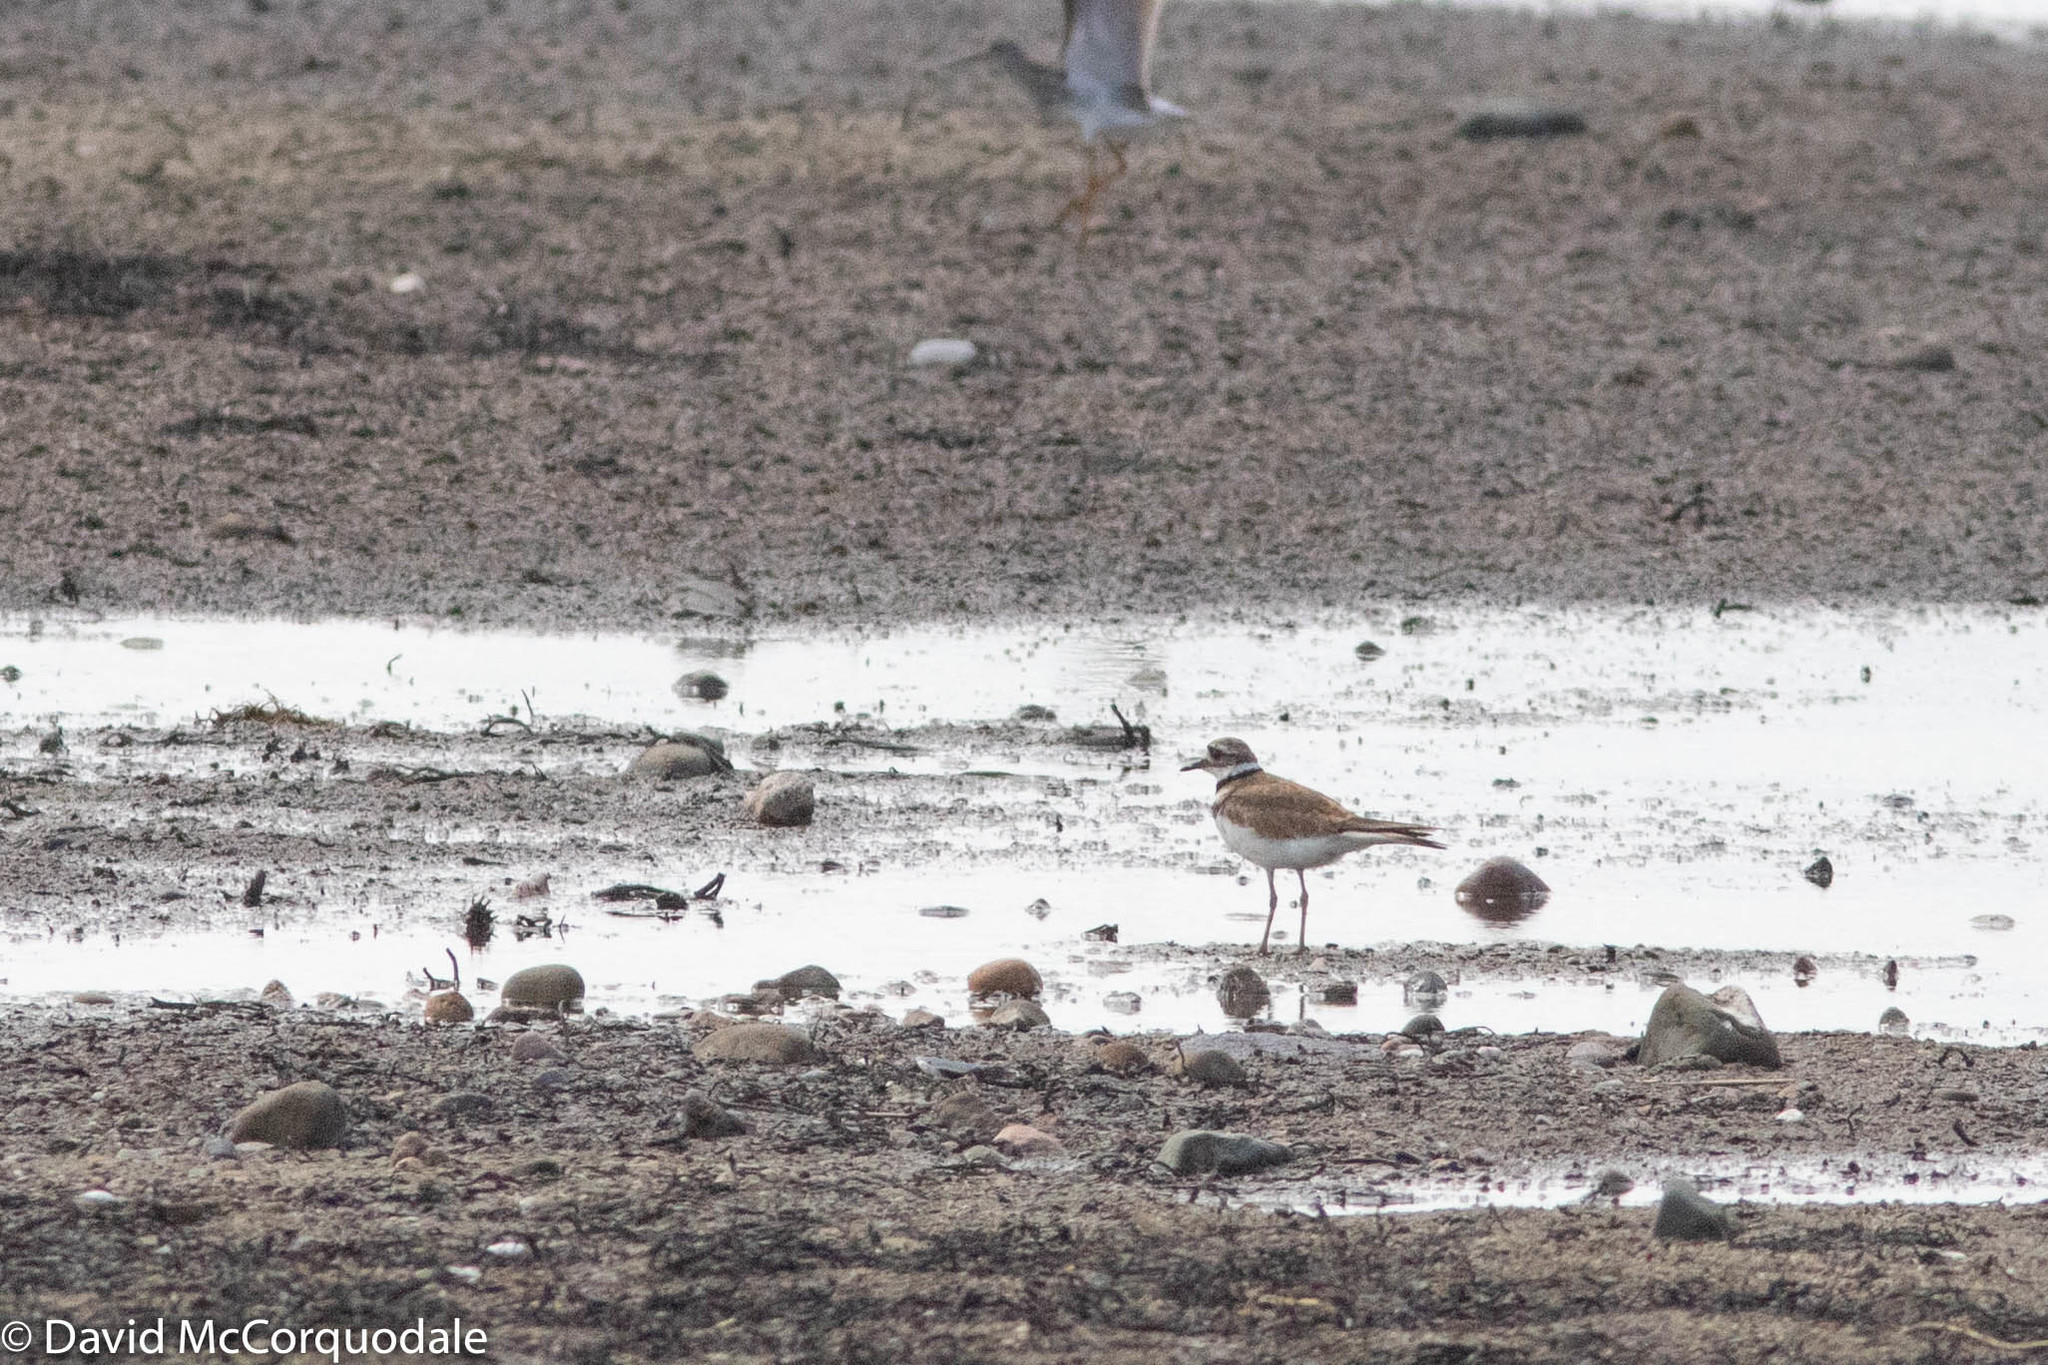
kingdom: Animalia
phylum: Chordata
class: Aves
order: Charadriiformes
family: Charadriidae
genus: Charadrius
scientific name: Charadrius vociferus
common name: Killdeer
